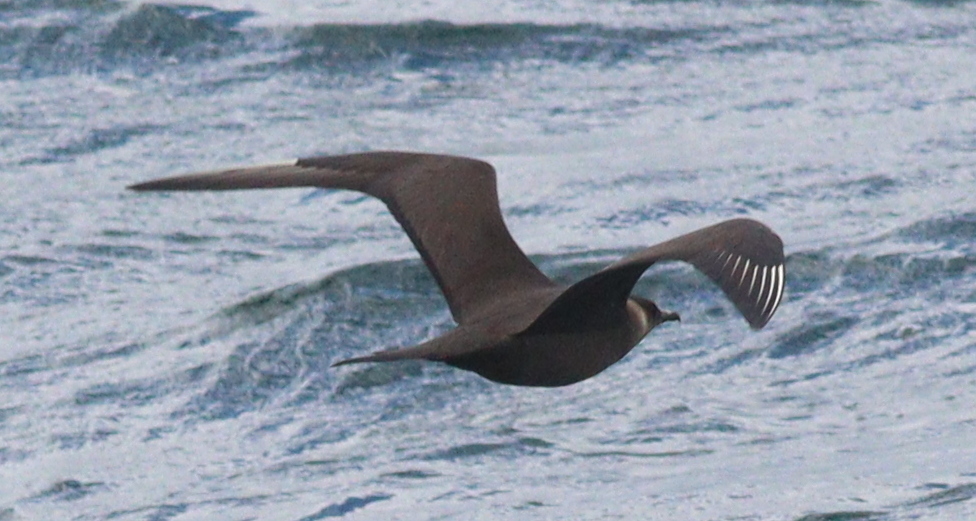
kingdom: Animalia
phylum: Chordata
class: Aves
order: Charadriiformes
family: Stercorariidae
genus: Stercorarius
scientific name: Stercorarius parasiticus
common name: Parasitic jaeger
